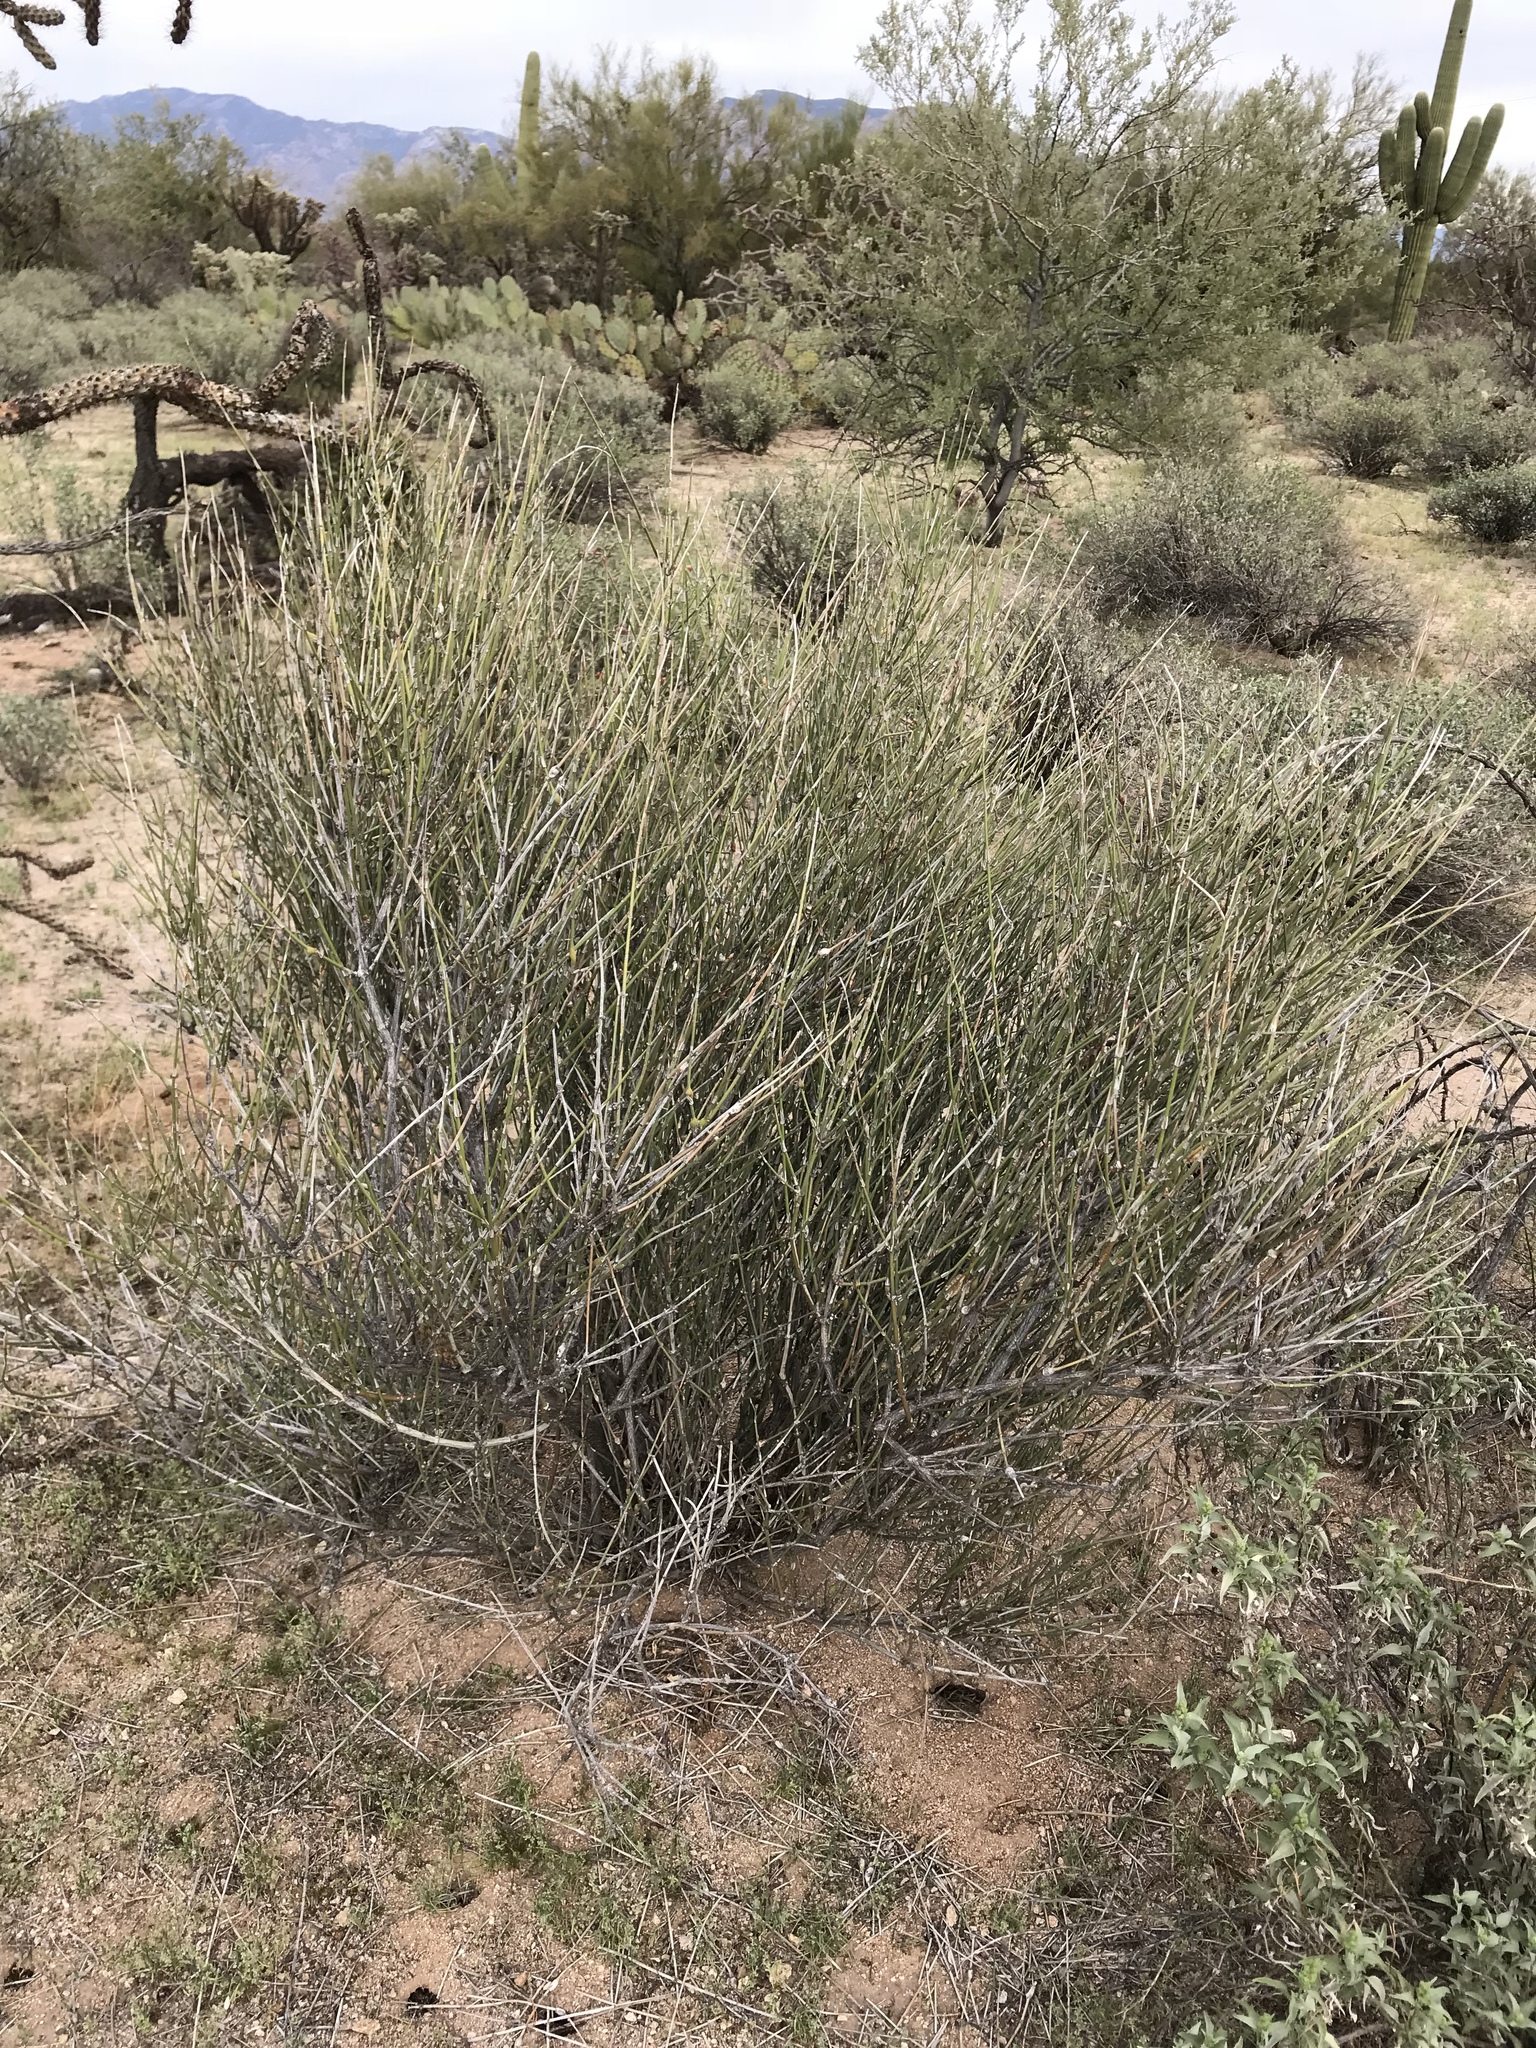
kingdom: Plantae
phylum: Tracheophyta
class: Gnetopsida
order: Ephedrales
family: Ephedraceae
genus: Ephedra
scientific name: Ephedra trifurca
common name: Mexican-tea
